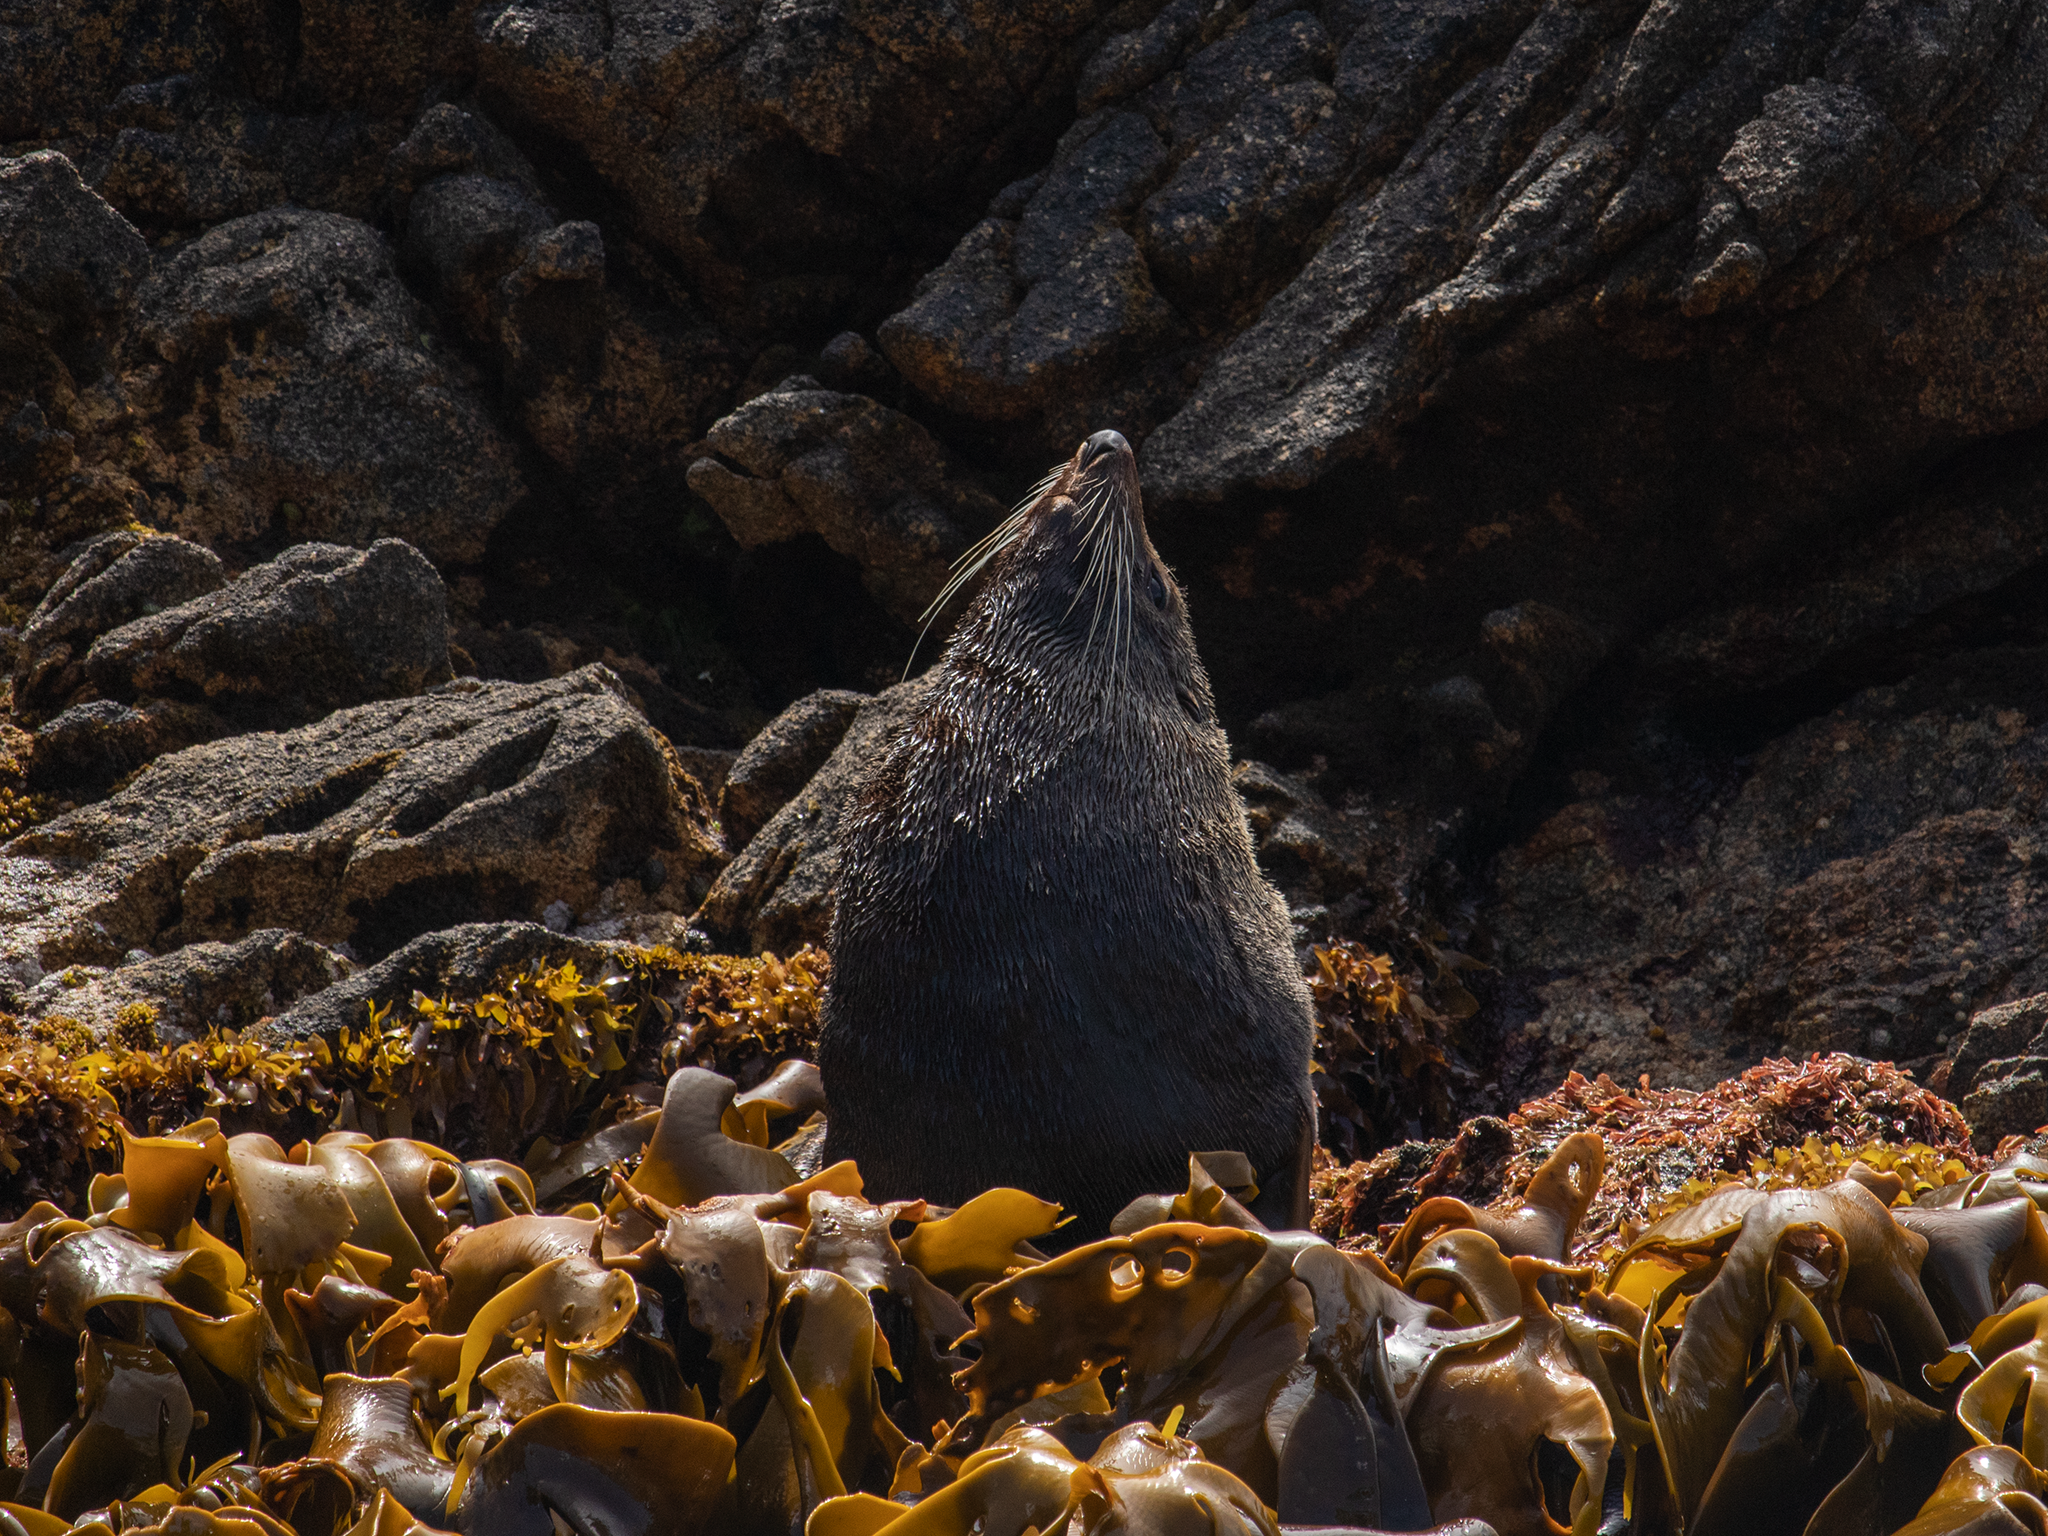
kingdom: Animalia
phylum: Chordata
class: Mammalia
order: Carnivora
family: Otariidae
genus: Arctocephalus
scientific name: Arctocephalus forsteri
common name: New zealand fur seal
